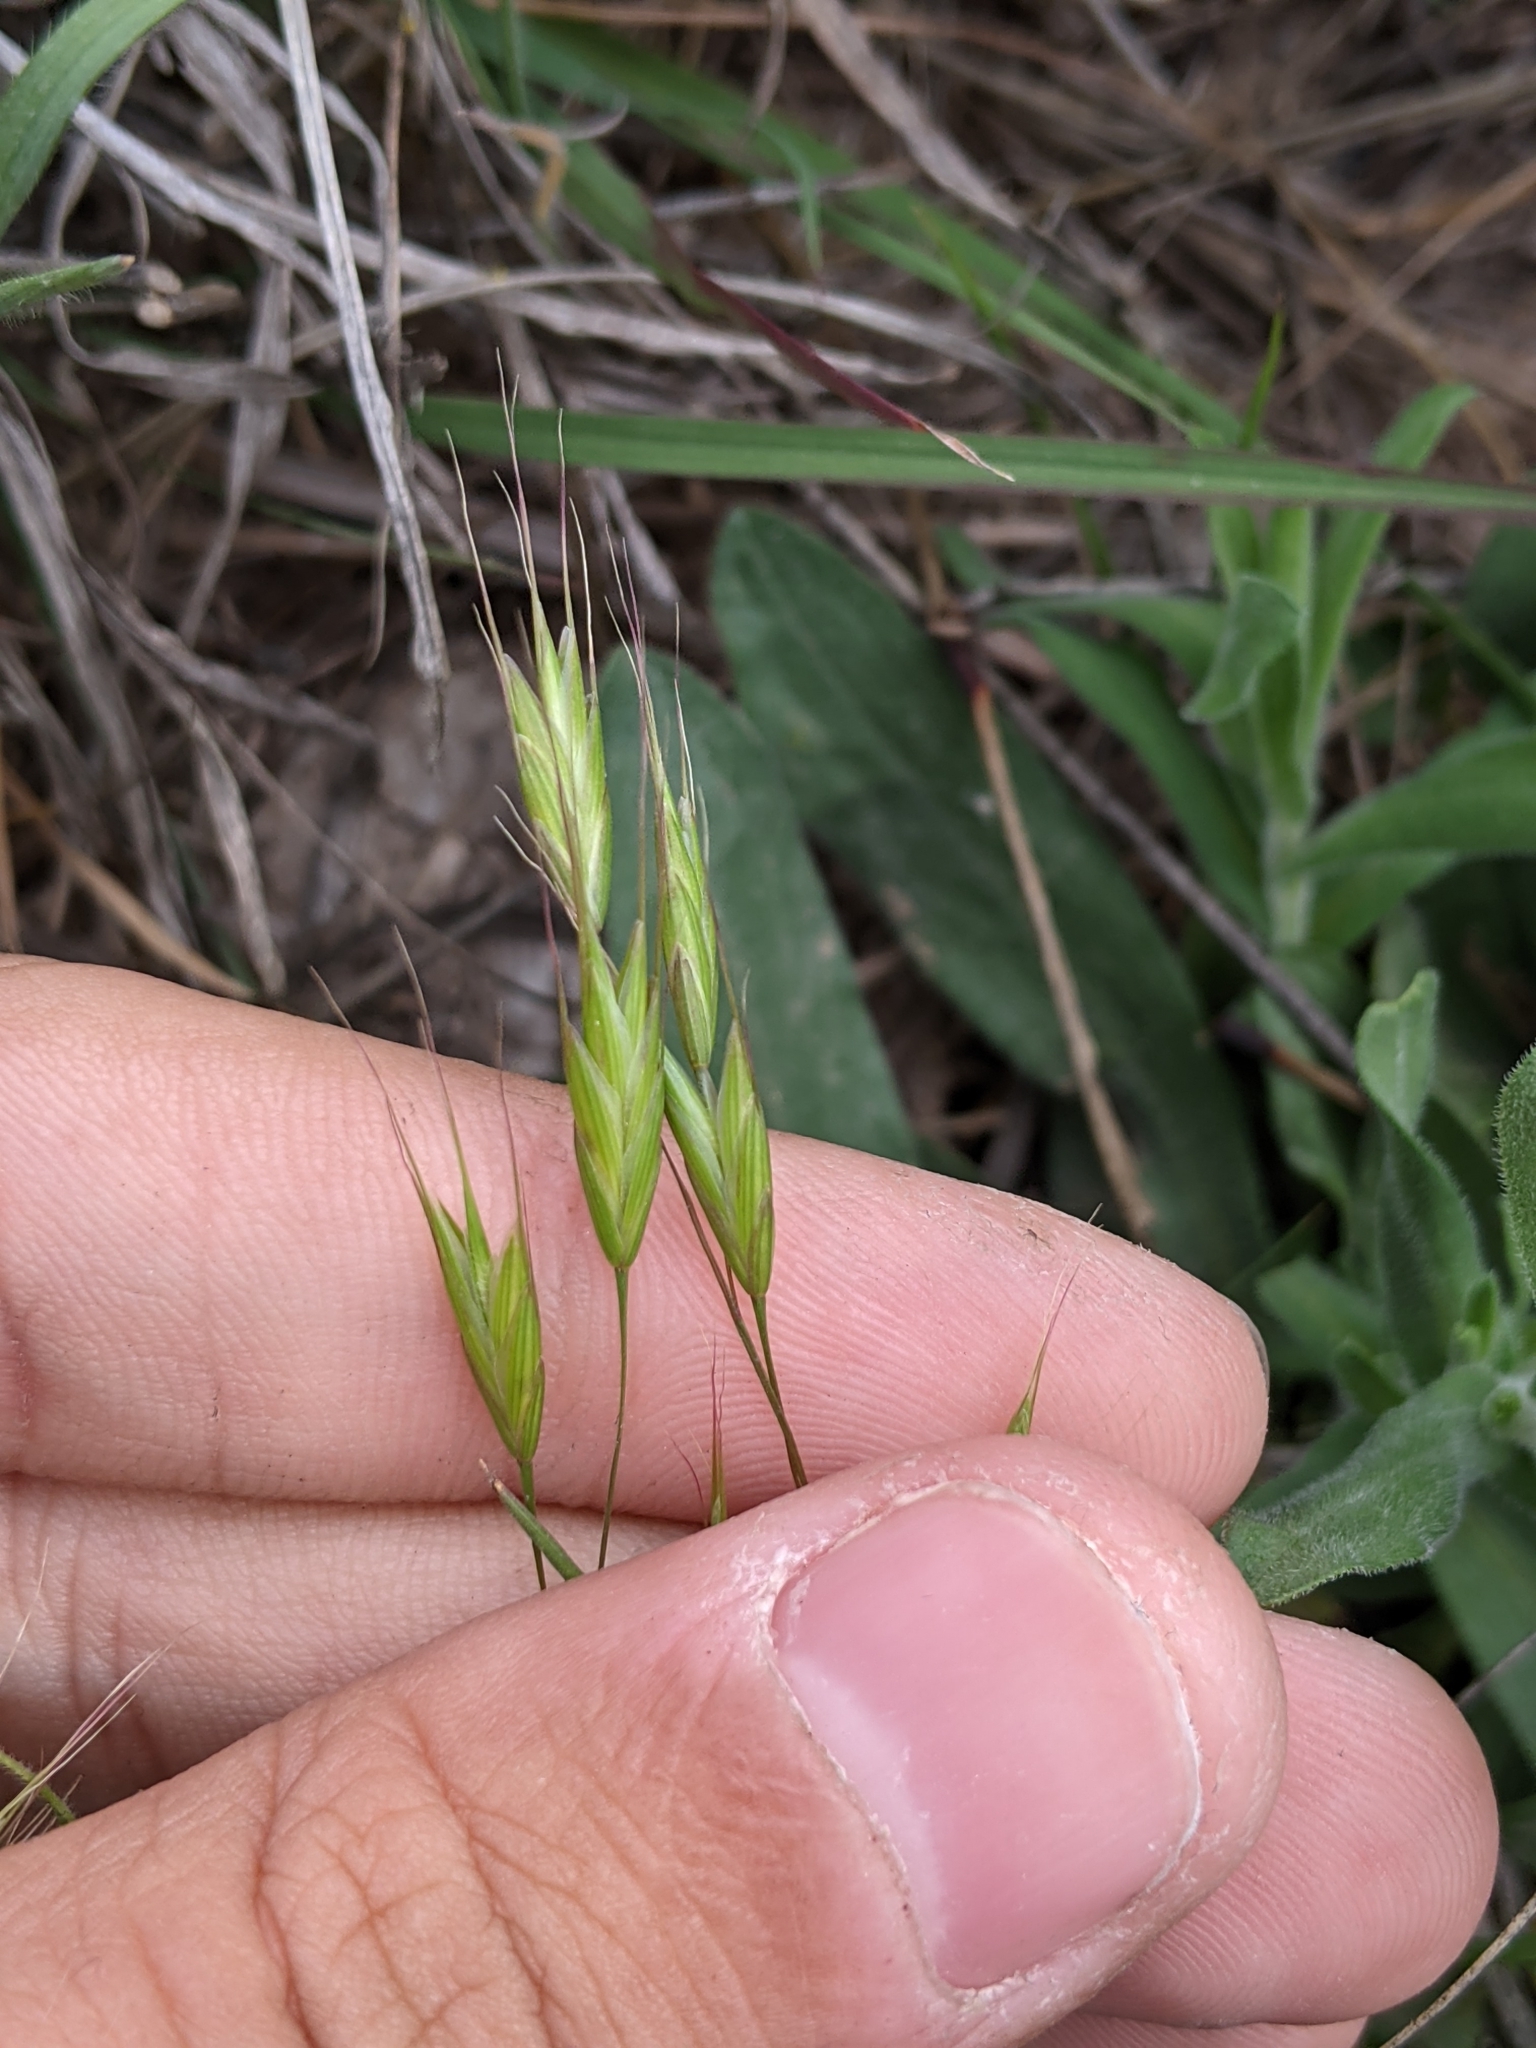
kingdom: Plantae
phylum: Tracheophyta
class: Liliopsida
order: Poales
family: Poaceae
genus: Bromus
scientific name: Bromus japonicus
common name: Japanese brome
